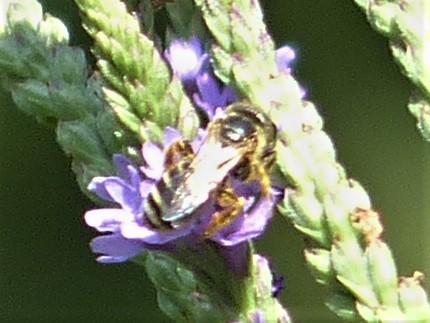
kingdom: Animalia
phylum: Arthropoda
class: Insecta
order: Hymenoptera
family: Halictidae
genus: Halictus
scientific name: Halictus ligatus
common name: Ligated furrow bee
